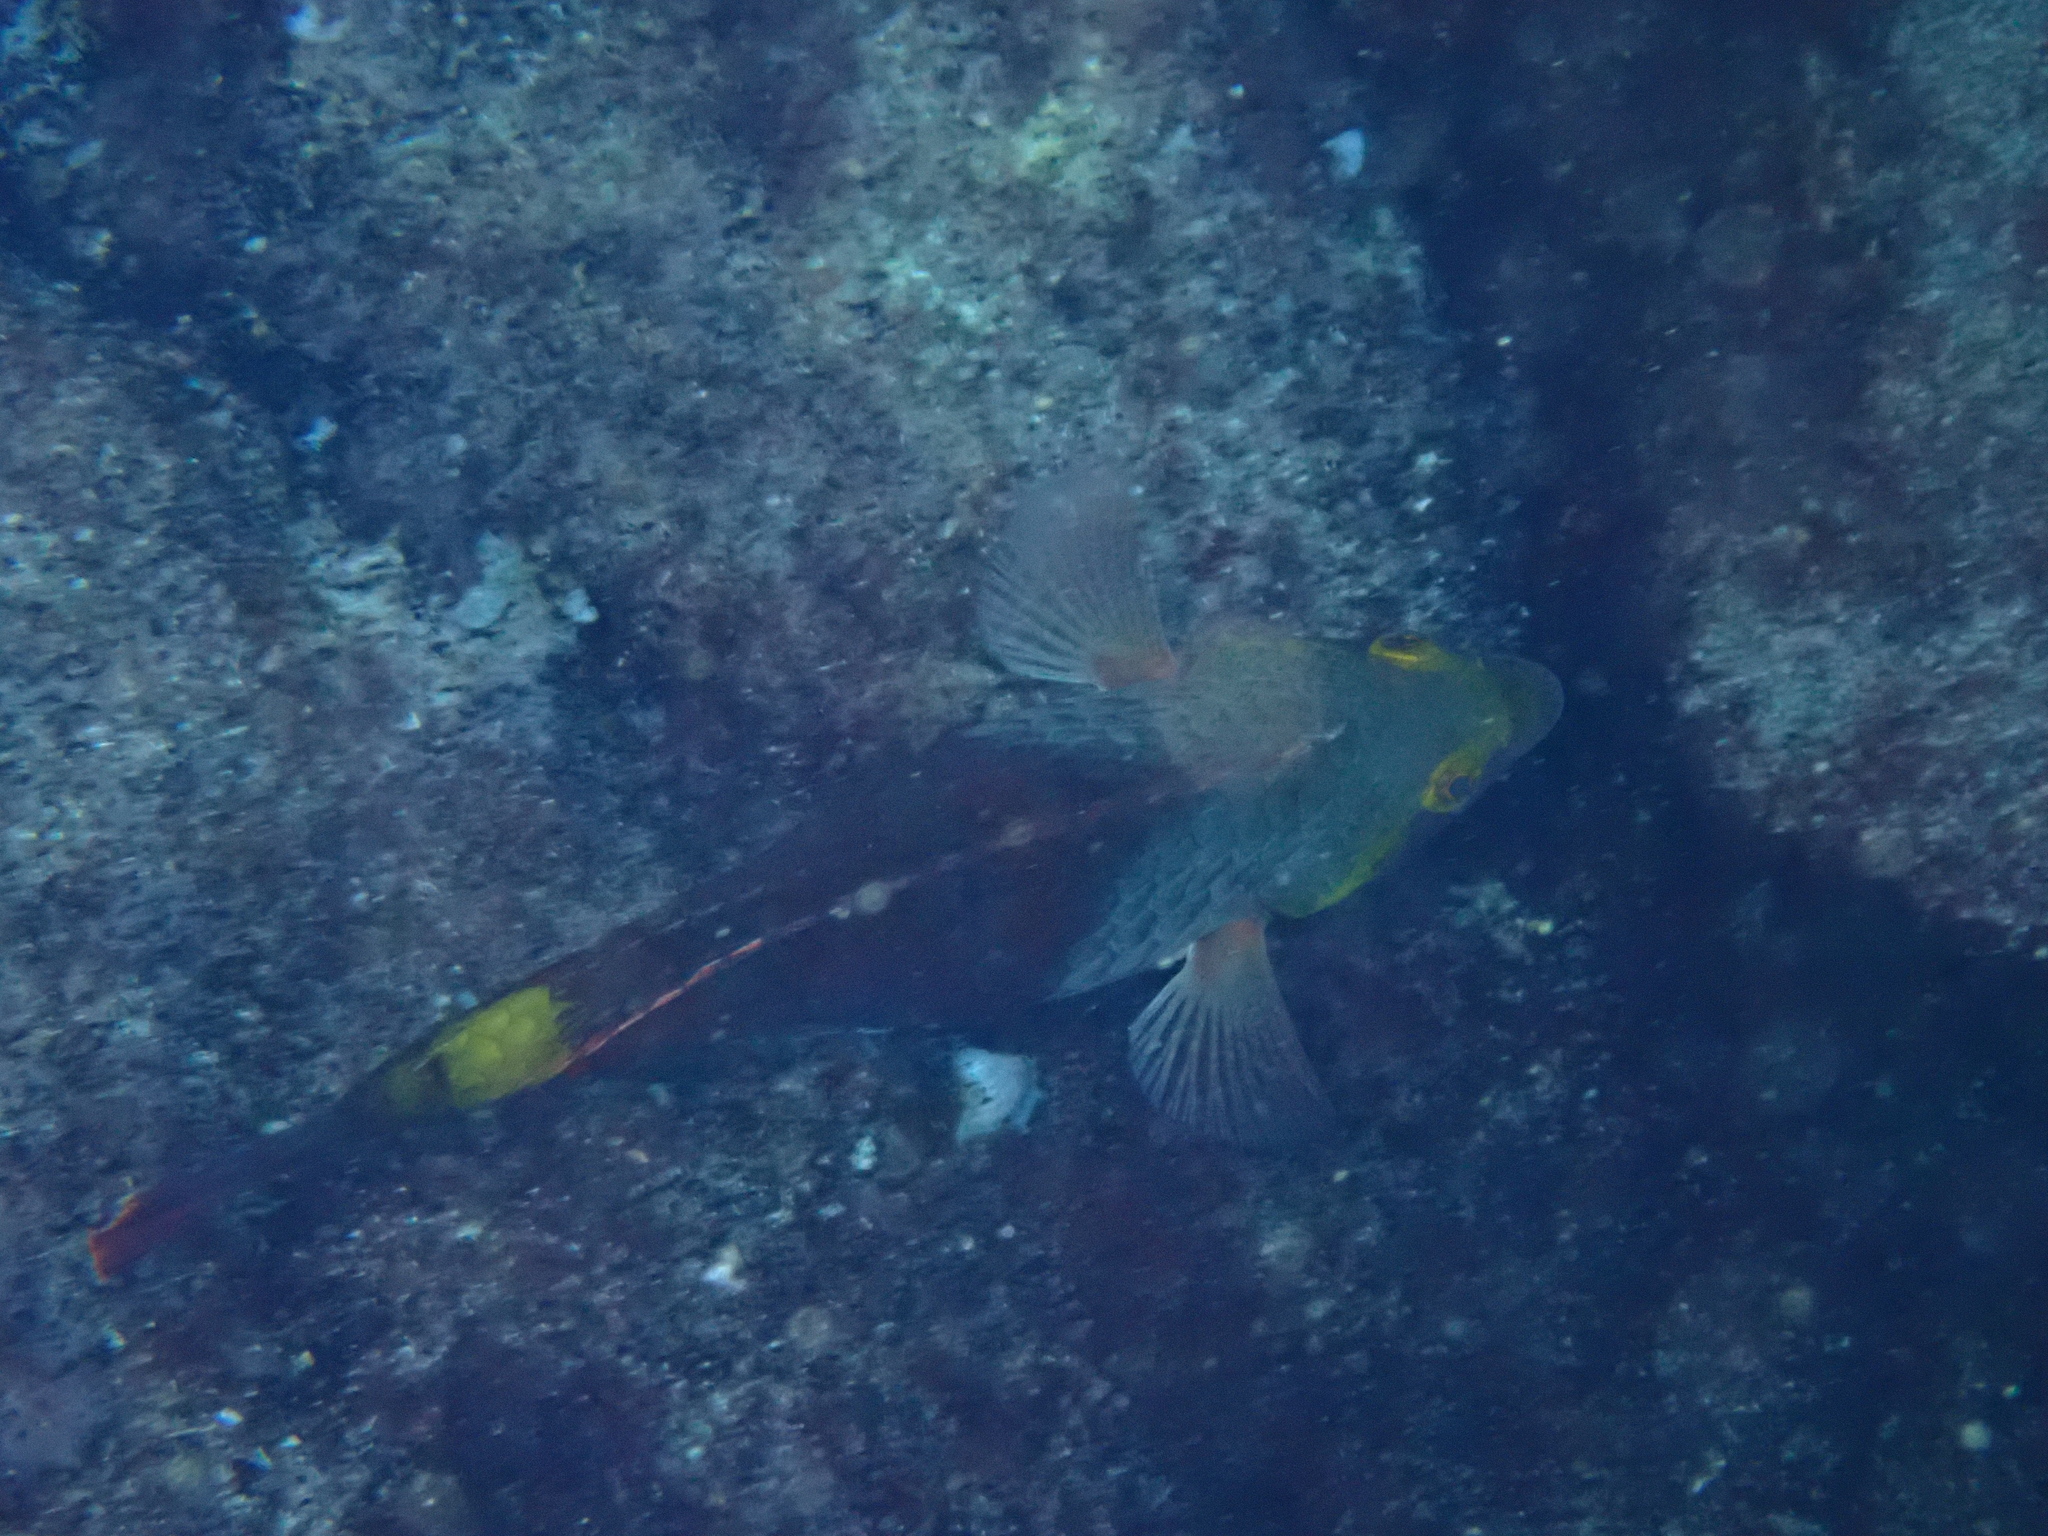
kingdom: Animalia
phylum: Chordata
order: Perciformes
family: Scaridae
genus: Sparisoma
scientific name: Sparisoma cretense
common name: Parrotfish
